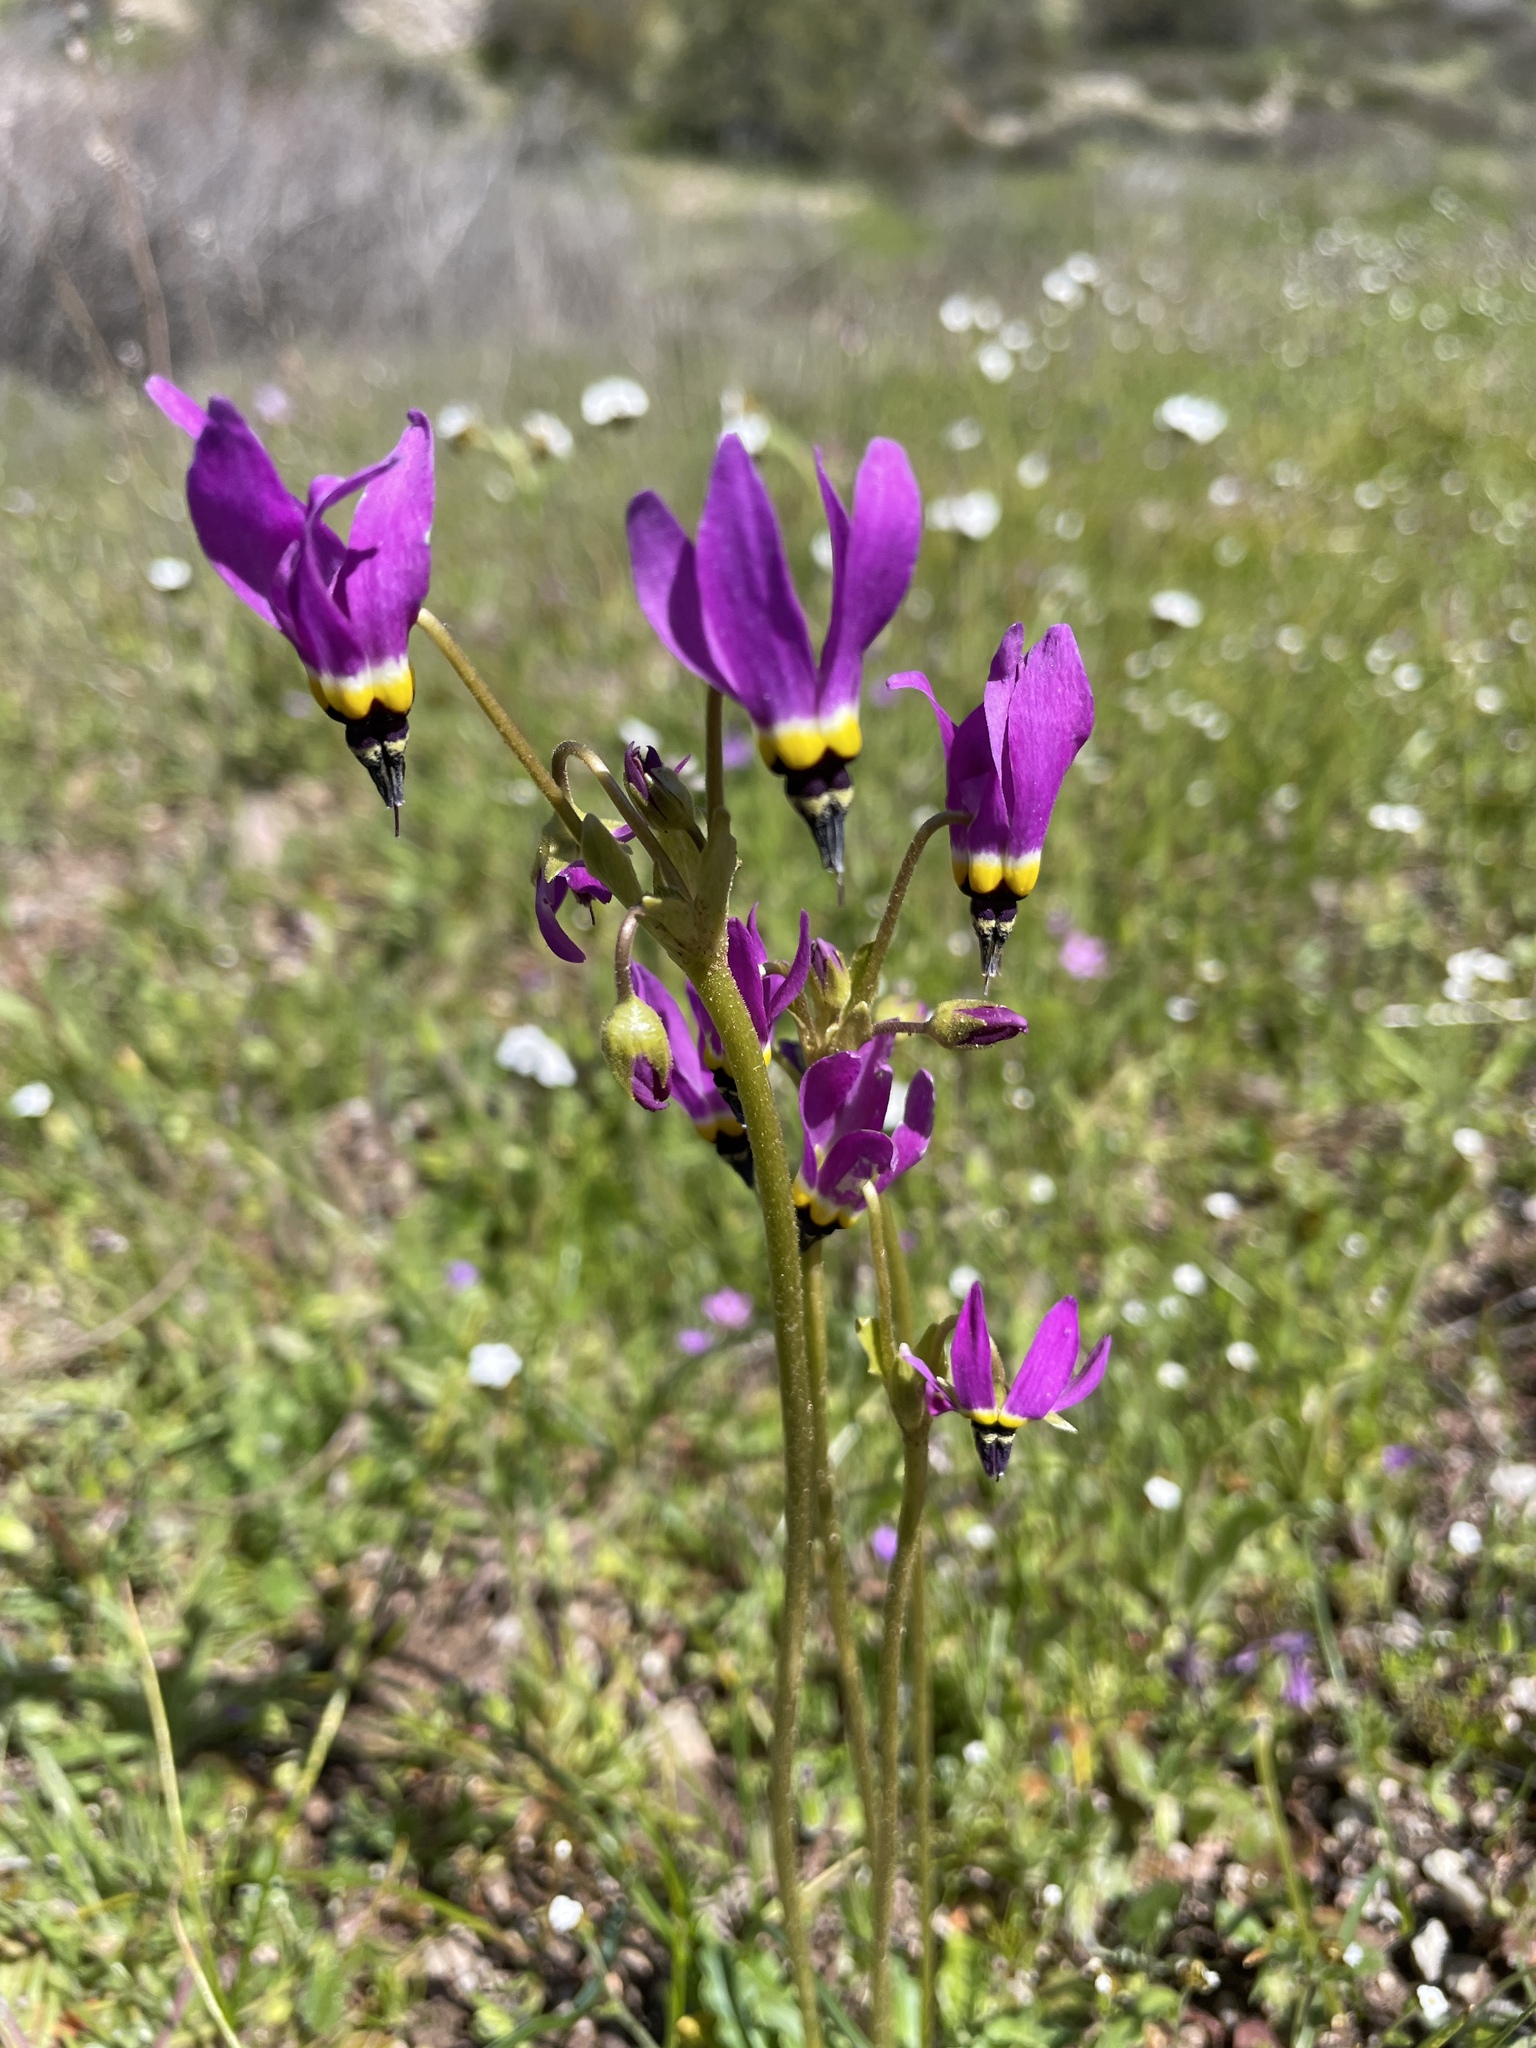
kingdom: Plantae
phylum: Tracheophyta
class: Magnoliopsida
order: Ericales
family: Primulaceae
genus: Dodecatheon
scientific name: Dodecatheon clevelandii
